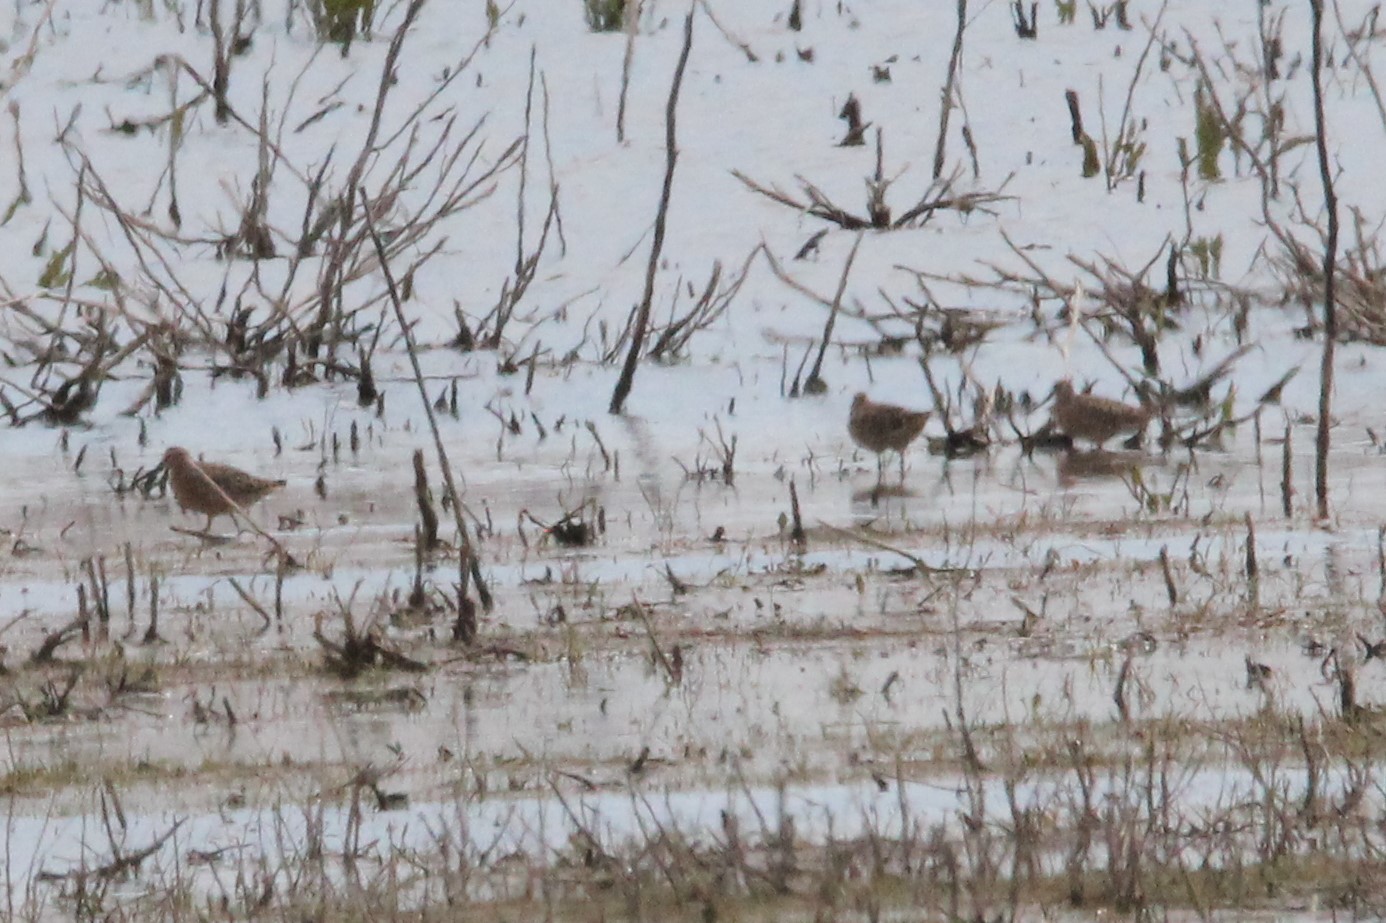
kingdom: Animalia
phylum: Chordata
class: Aves
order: Charadriiformes
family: Scolopacidae
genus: Limnodromus
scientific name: Limnodromus griseus
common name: Short-billed dowitcher
